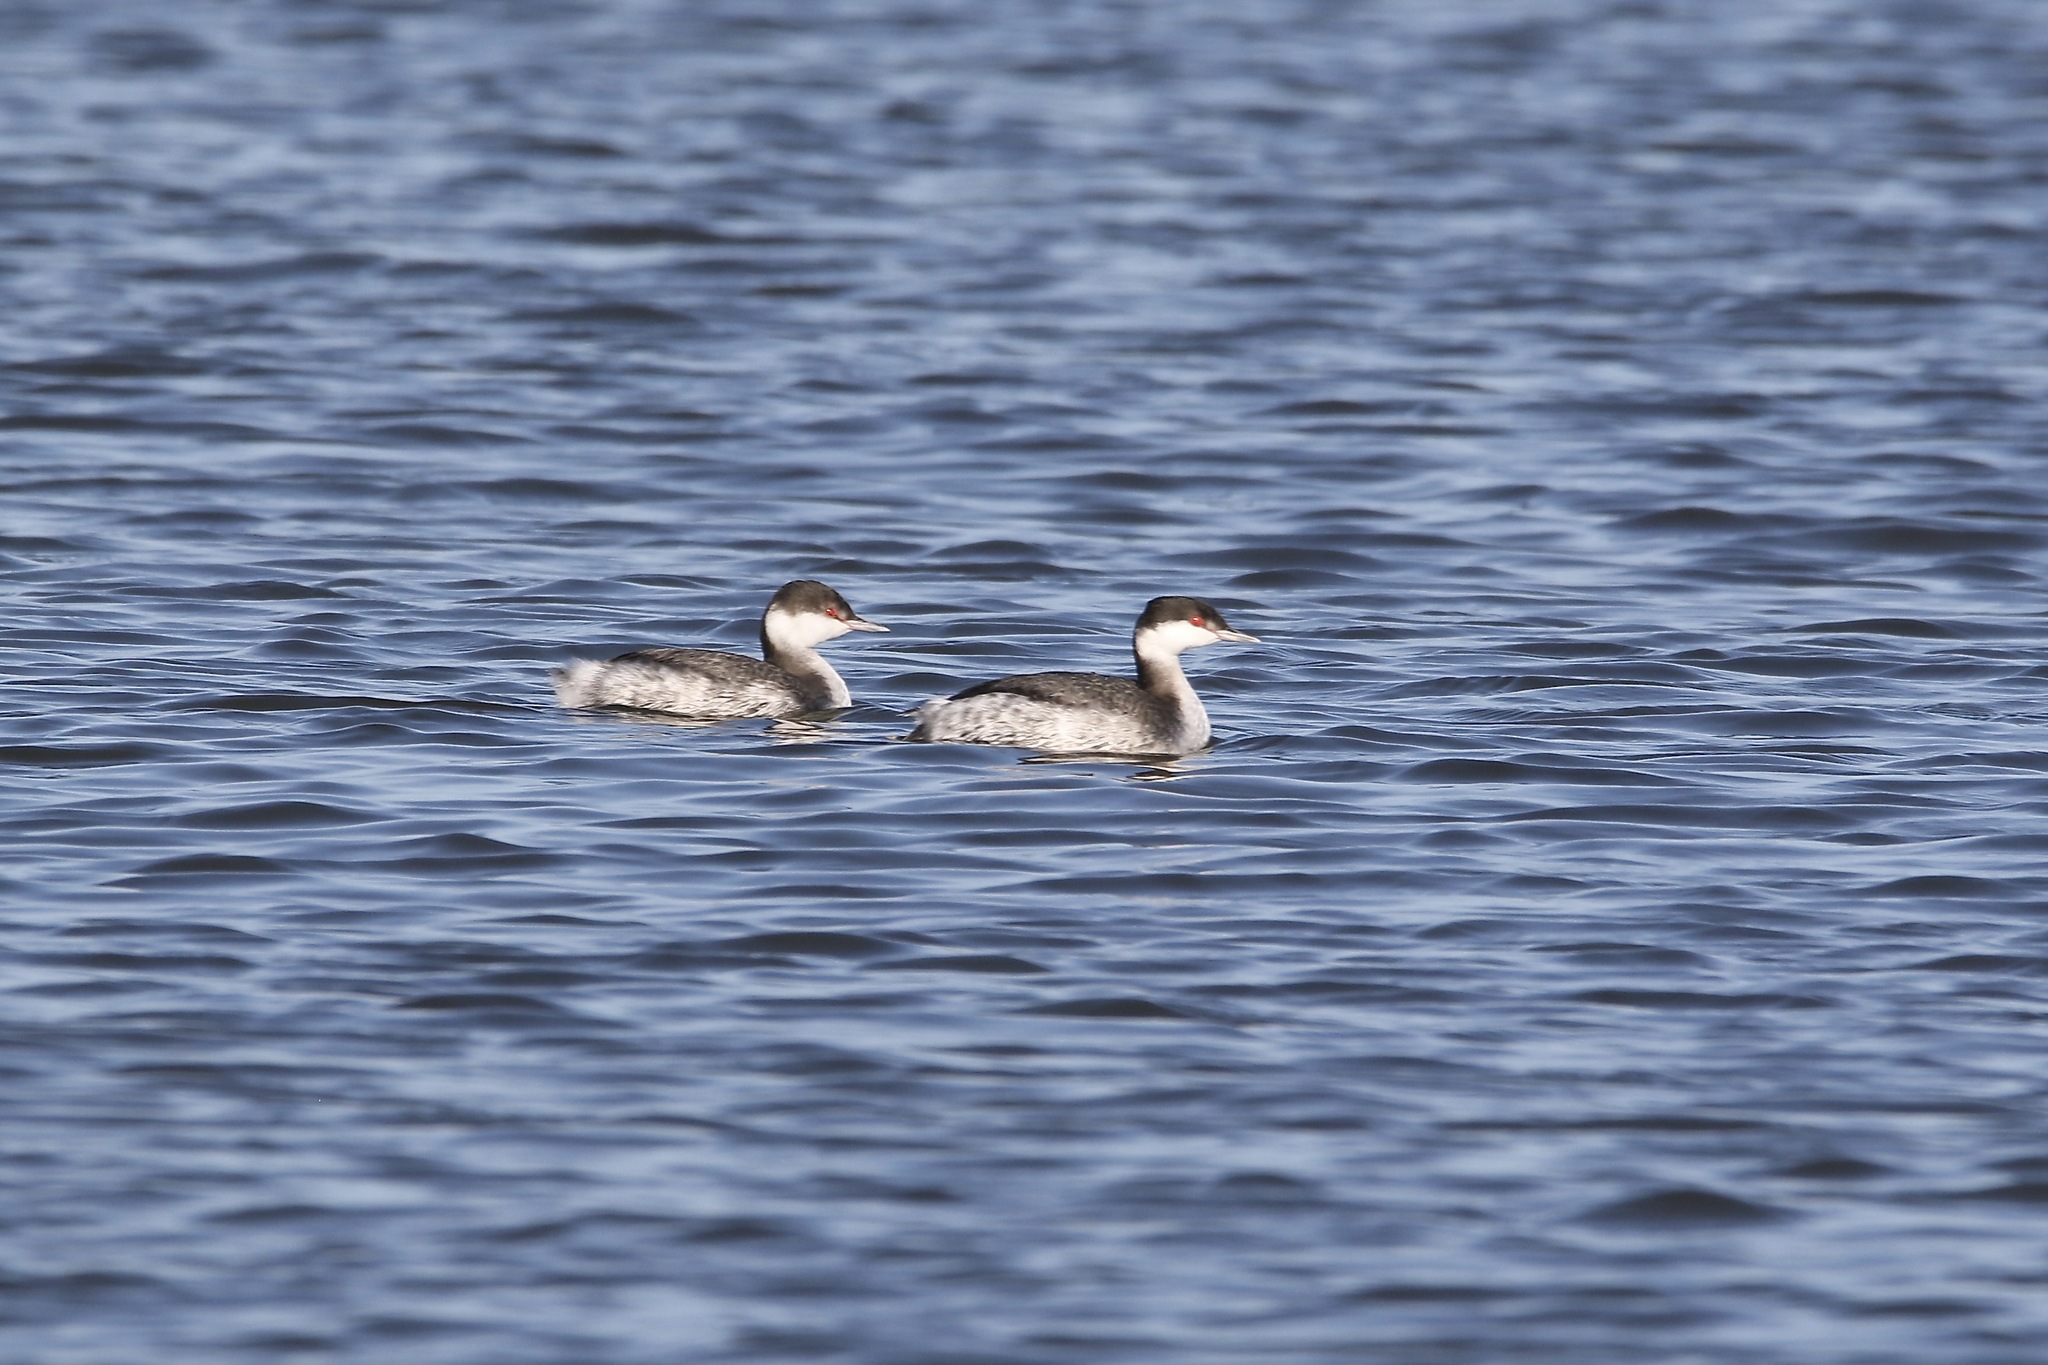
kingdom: Animalia
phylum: Chordata
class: Aves
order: Podicipediformes
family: Podicipedidae
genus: Podiceps
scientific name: Podiceps auritus
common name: Horned grebe
